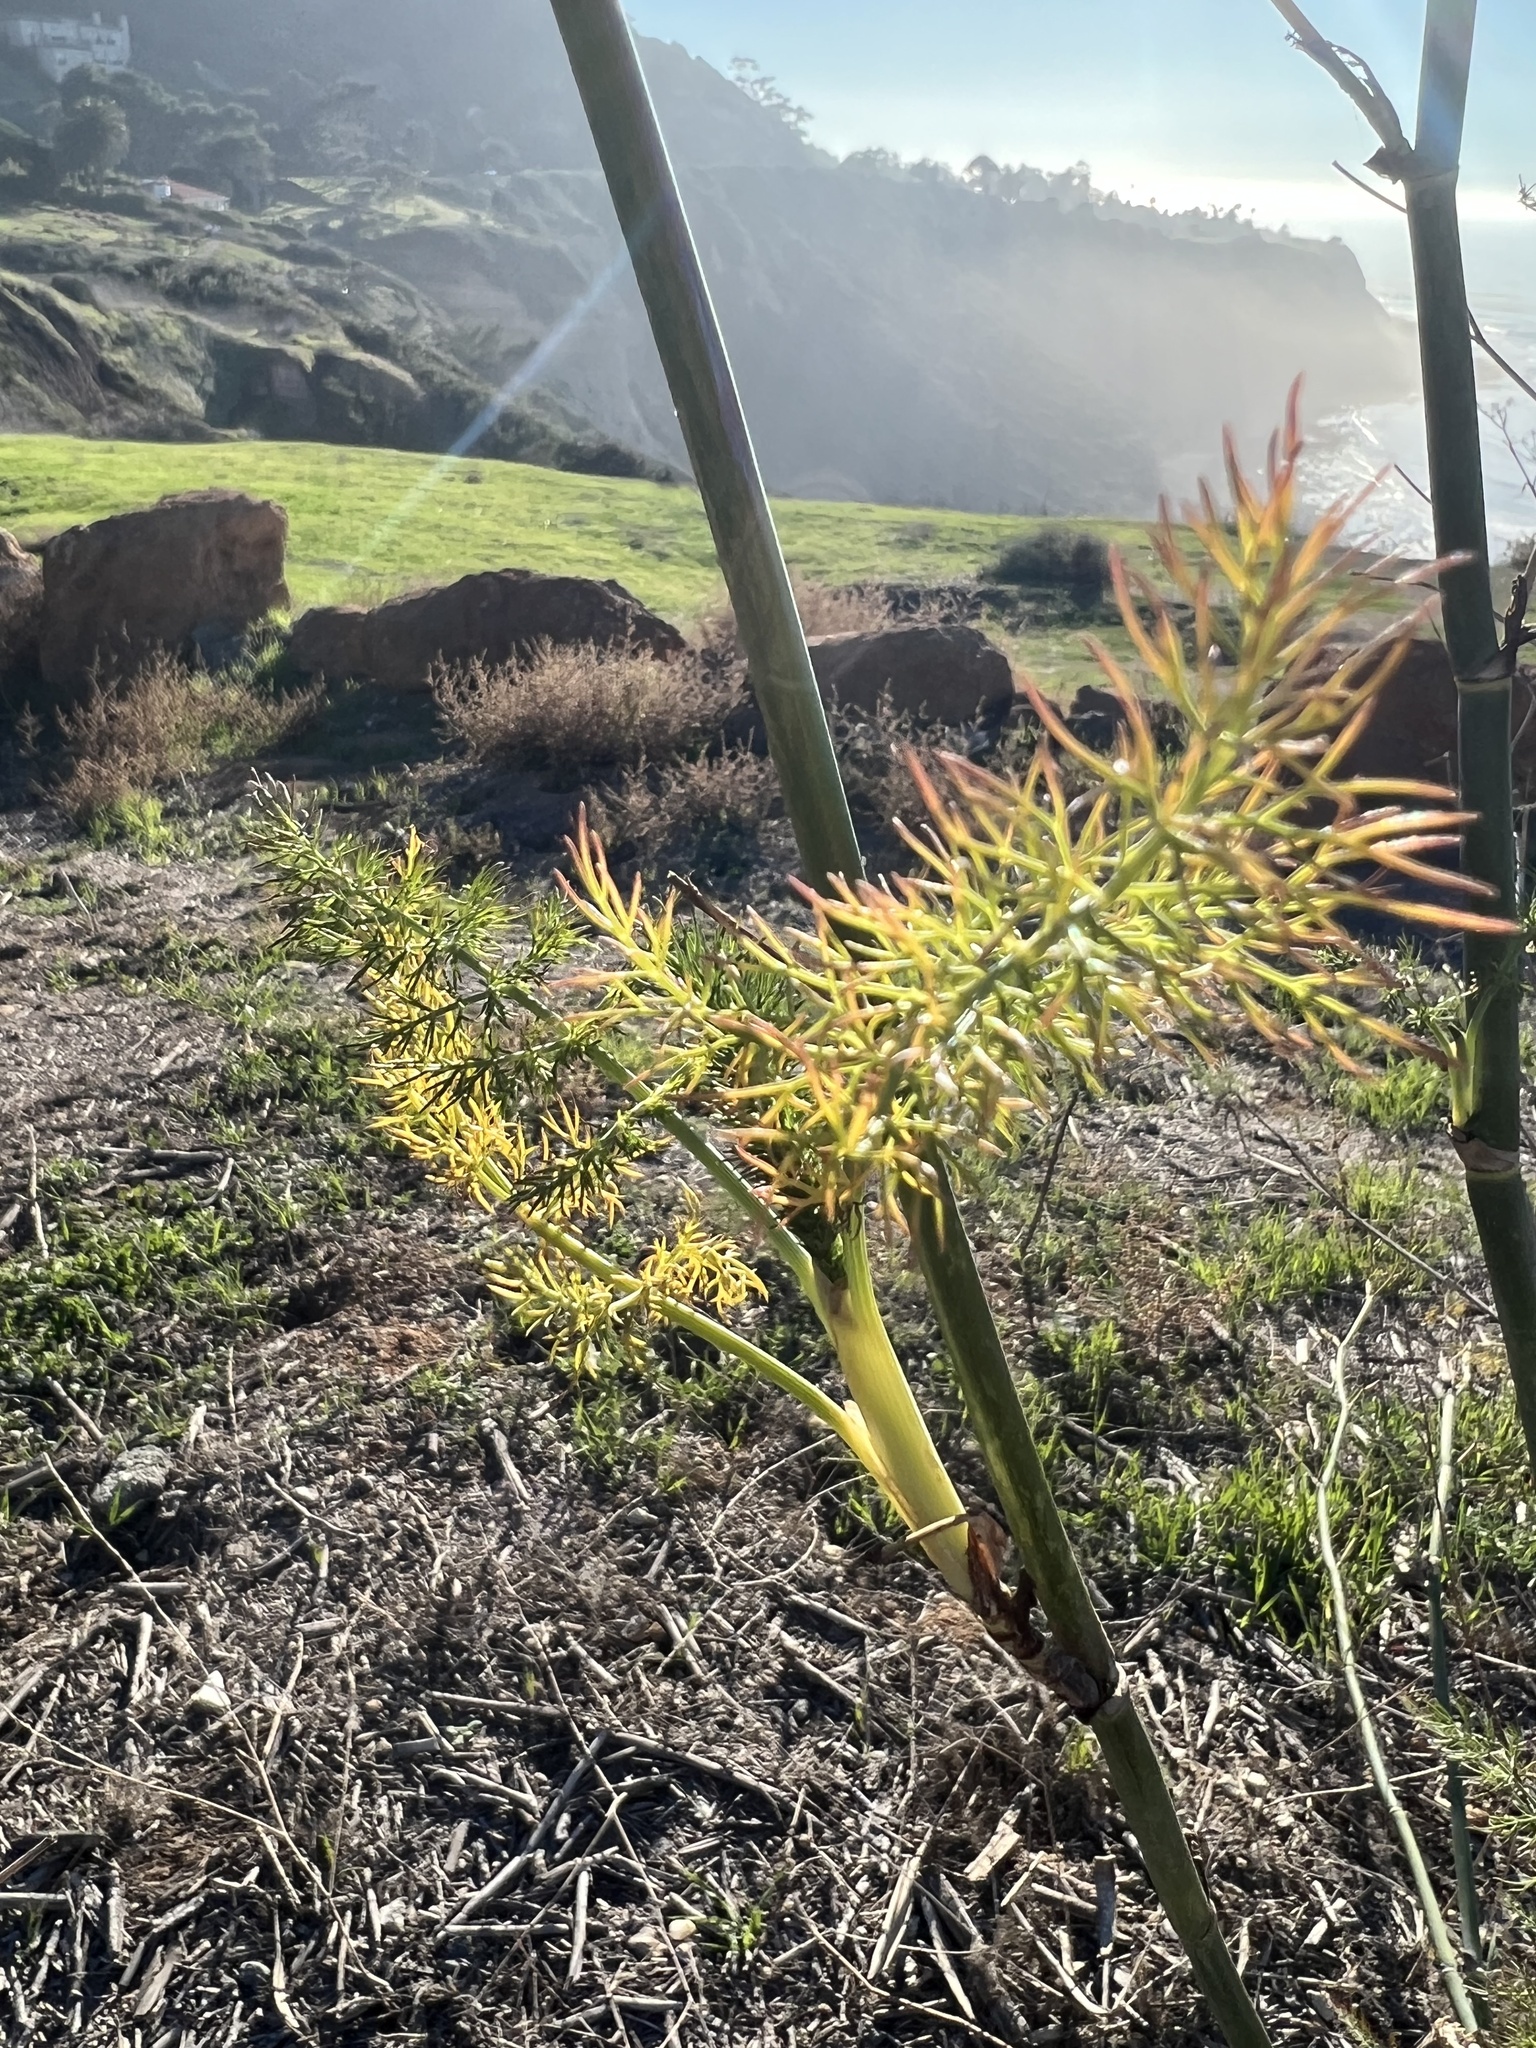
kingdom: Plantae
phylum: Tracheophyta
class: Magnoliopsida
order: Apiales
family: Apiaceae
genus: Foeniculum
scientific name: Foeniculum vulgare
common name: Fennel
